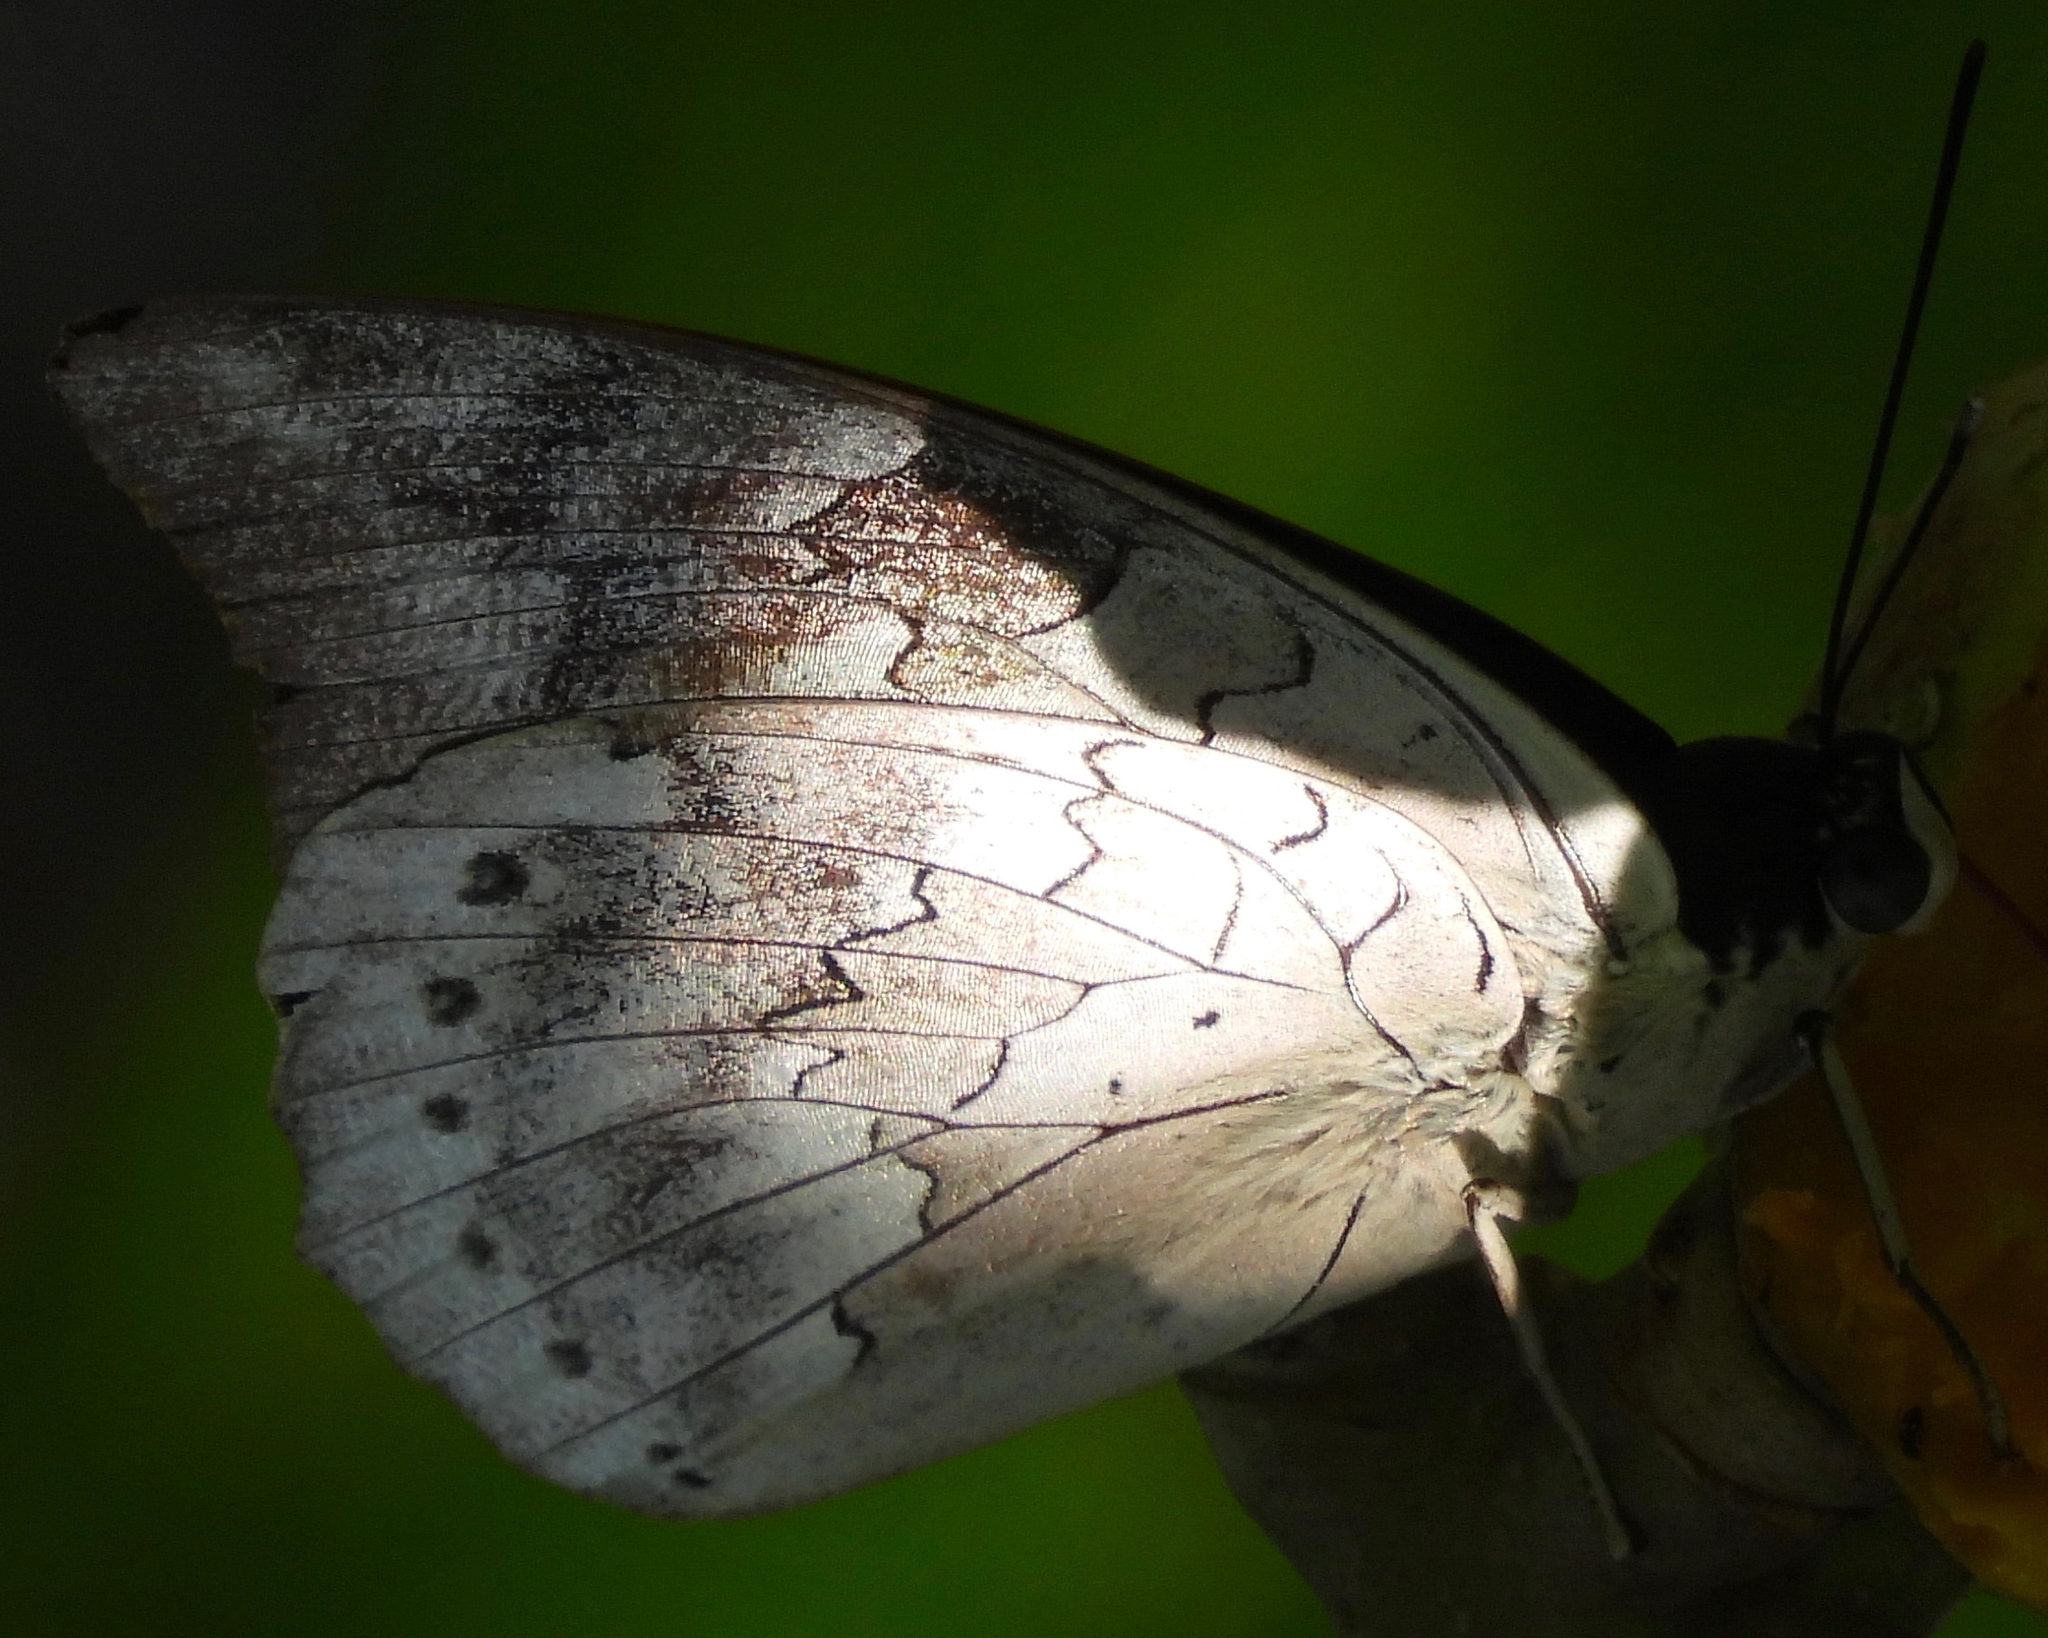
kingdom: Animalia
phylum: Arthropoda
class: Insecta
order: Lepidoptera
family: Nymphalidae
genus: Prepona
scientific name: Prepona demophoon
